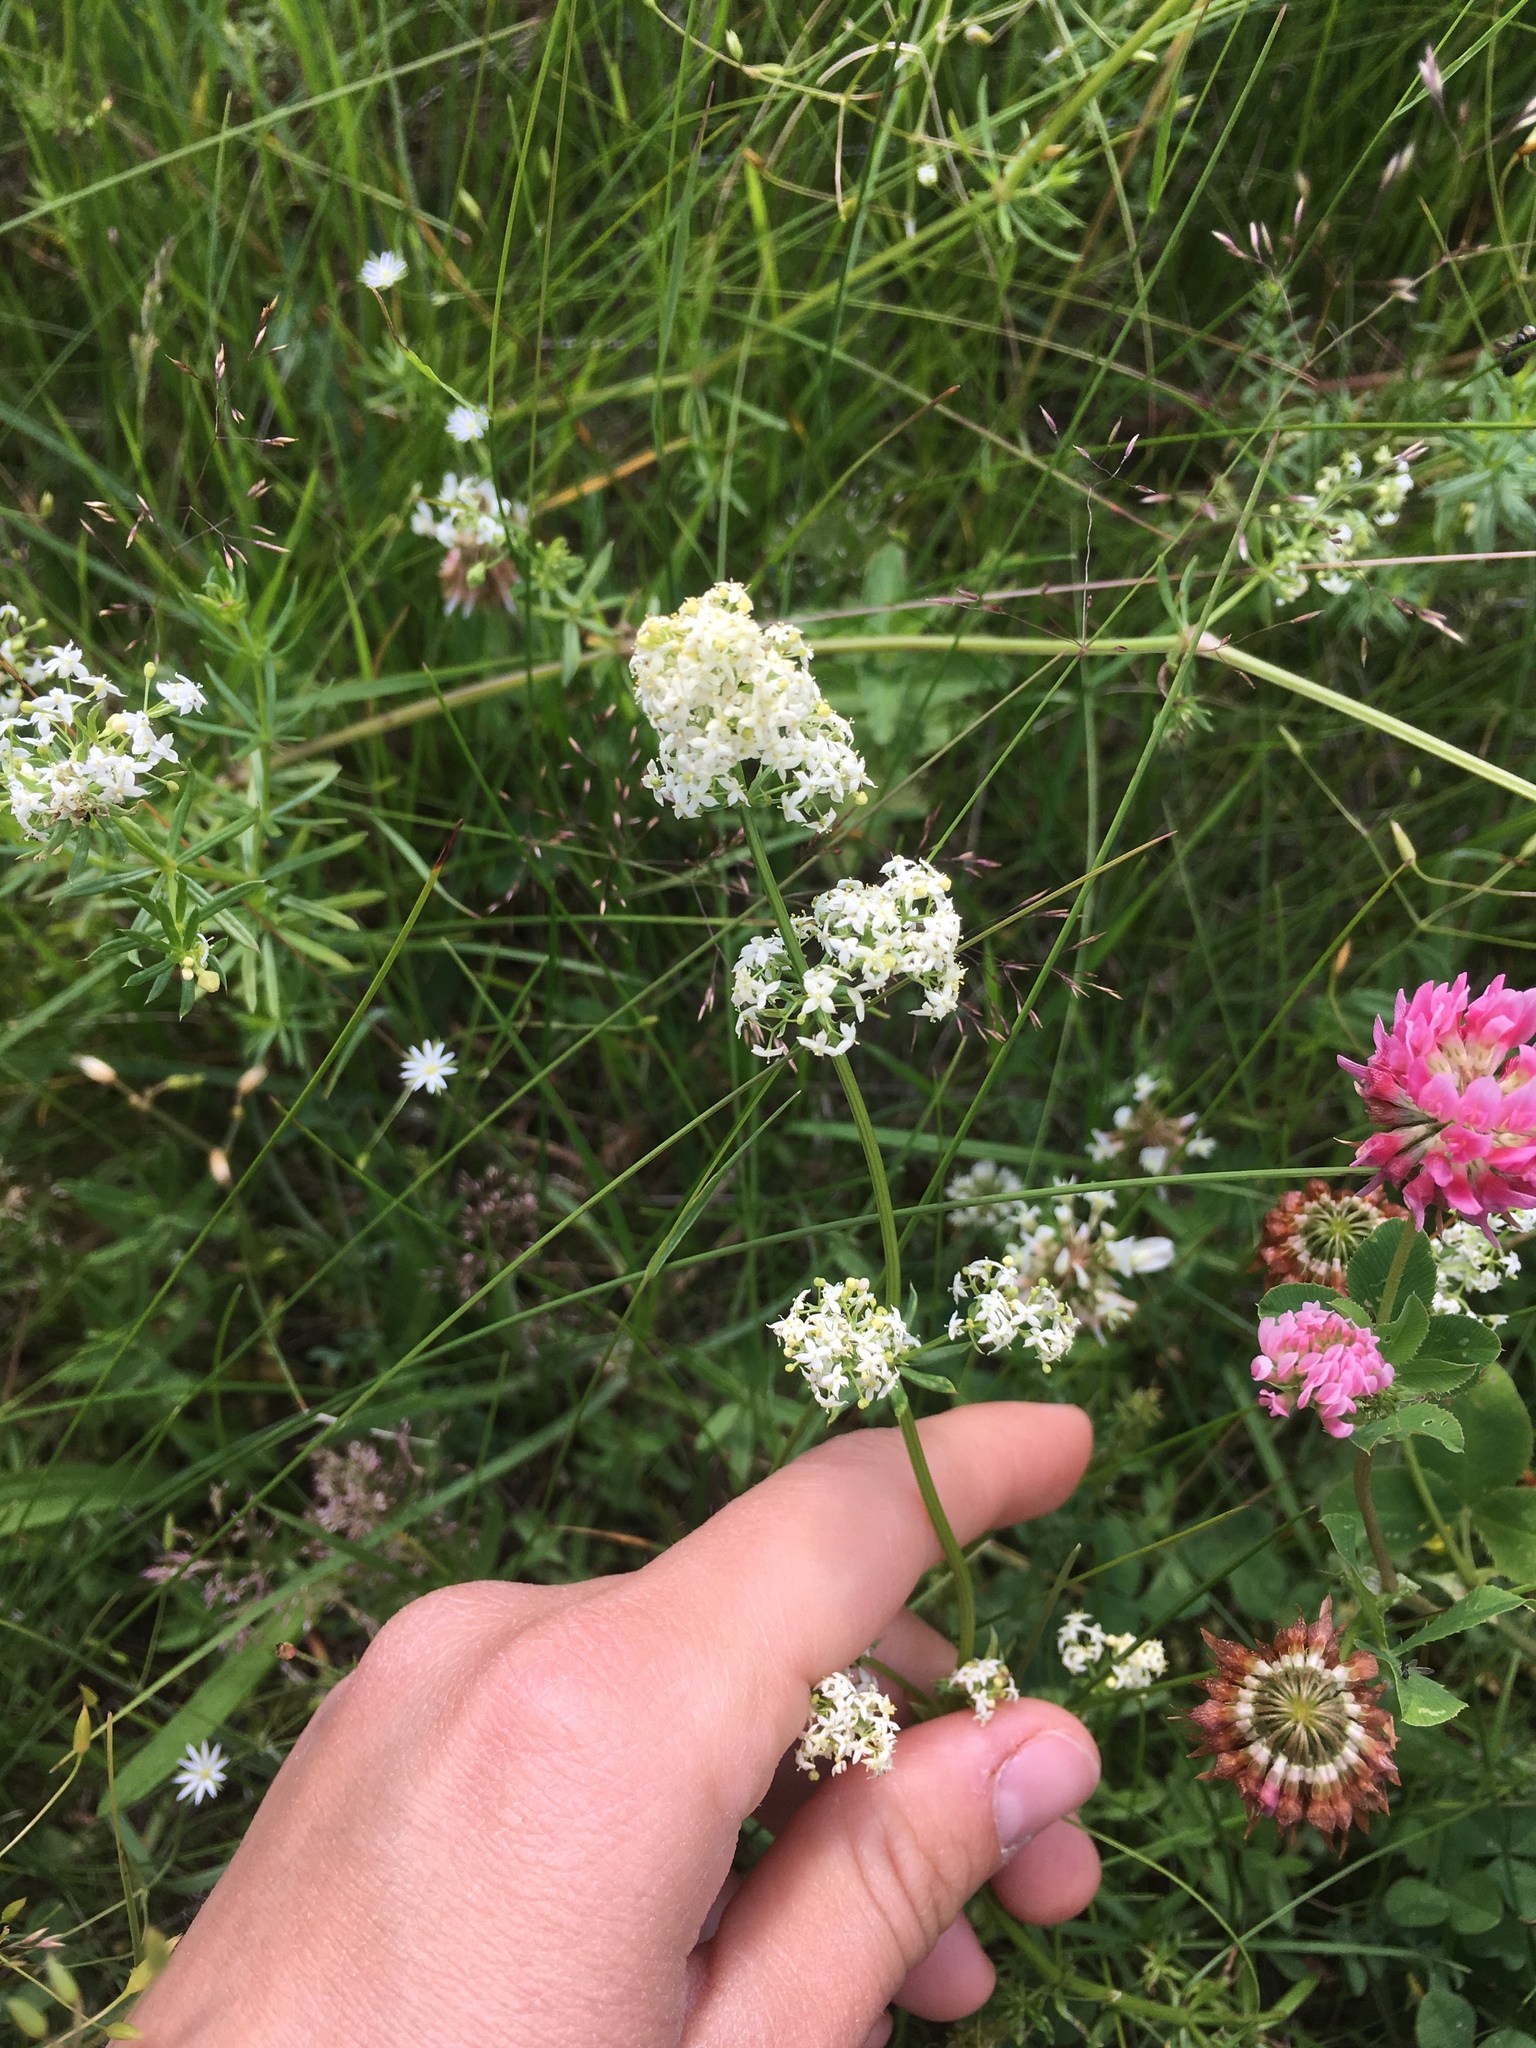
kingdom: Plantae
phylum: Tracheophyta
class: Magnoliopsida
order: Gentianales
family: Rubiaceae
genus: Galium
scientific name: Galium mollugo
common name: Hedge bedstraw
